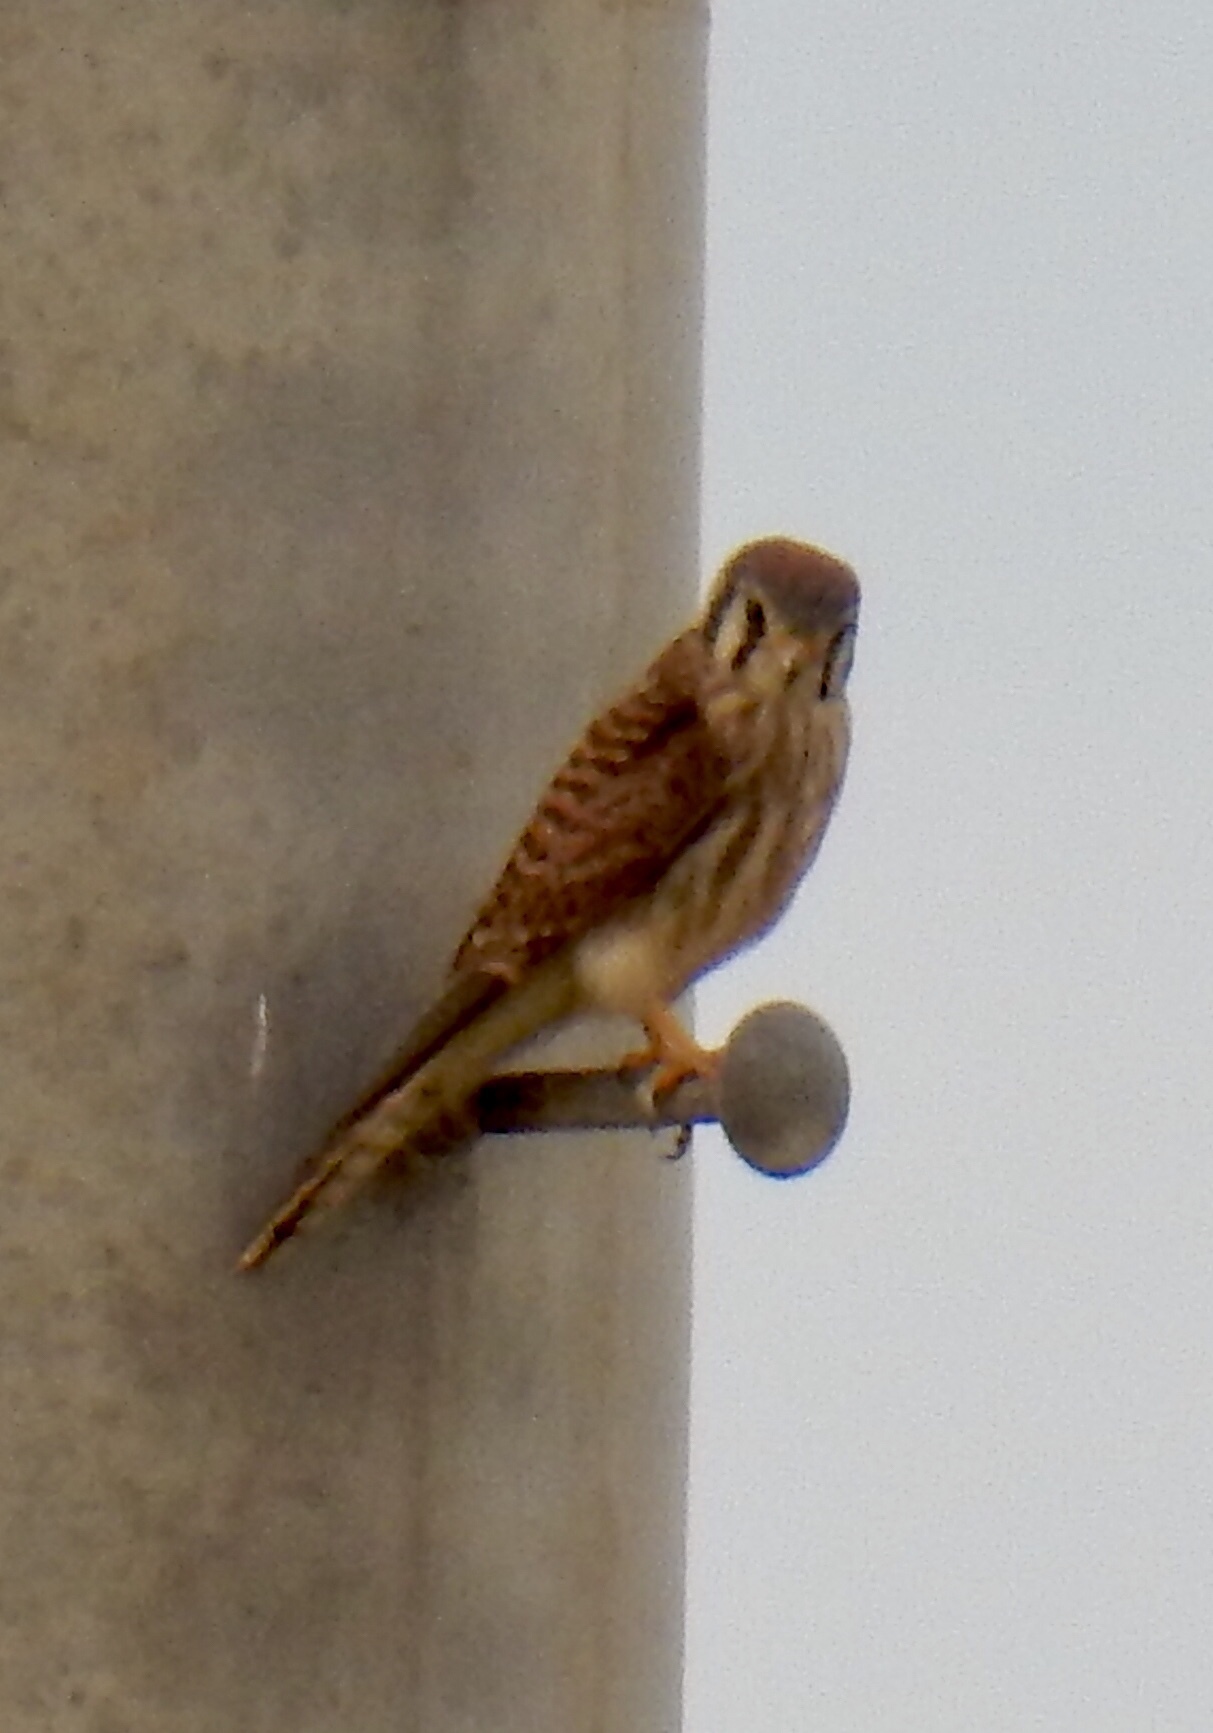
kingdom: Animalia
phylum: Chordata
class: Aves
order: Falconiformes
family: Falconidae
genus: Falco
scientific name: Falco sparverius
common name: American kestrel
